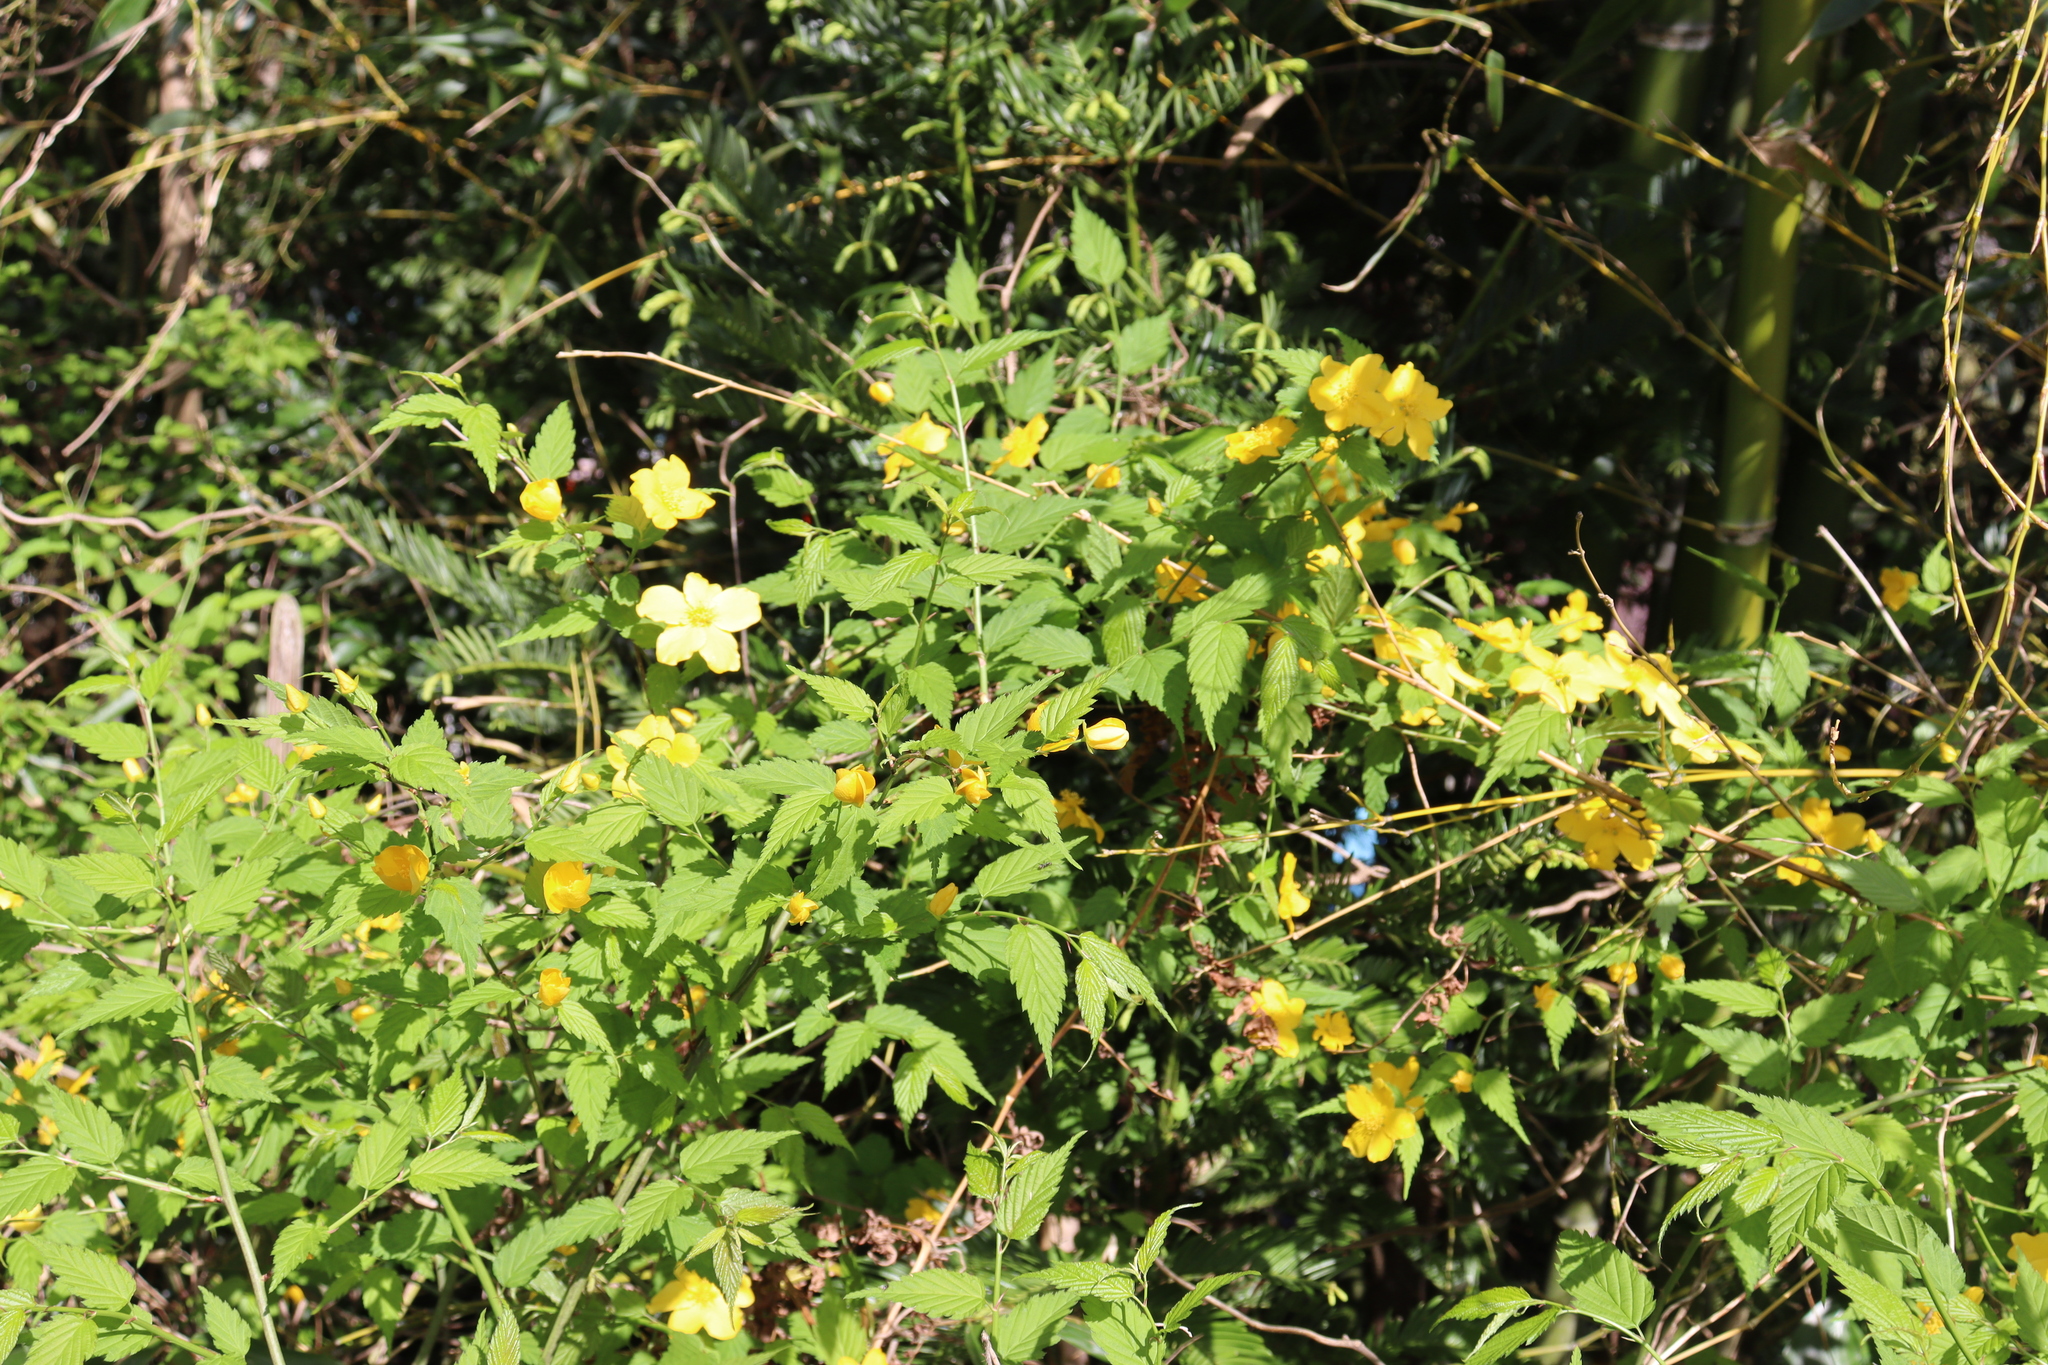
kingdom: Plantae
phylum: Tracheophyta
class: Magnoliopsida
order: Rosales
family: Rosaceae
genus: Kerria
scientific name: Kerria japonica
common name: Japanese kerria
